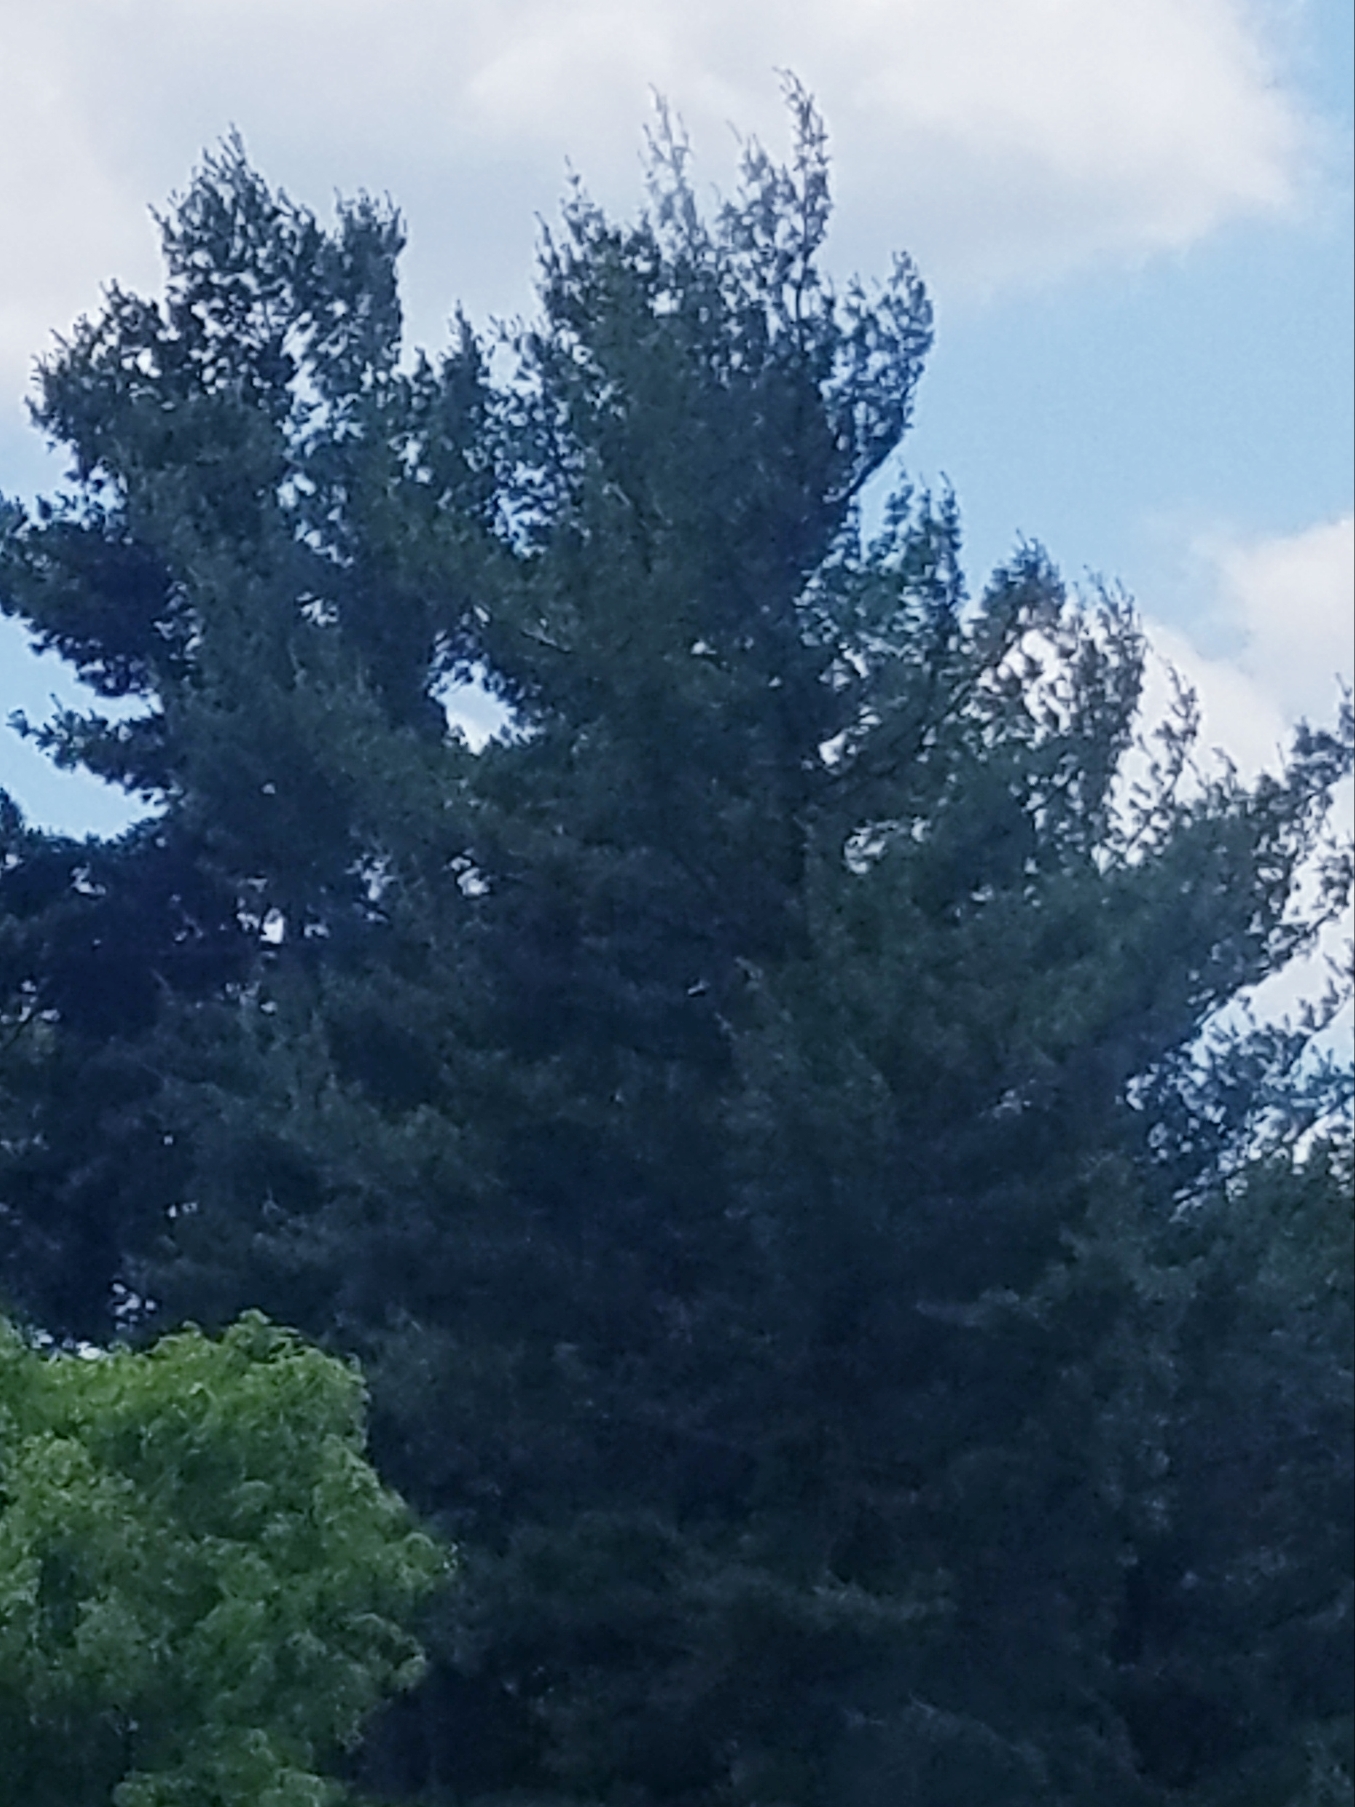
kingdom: Plantae
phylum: Tracheophyta
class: Pinopsida
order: Pinales
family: Pinaceae
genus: Pinus
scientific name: Pinus strobus
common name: Weymouth pine
